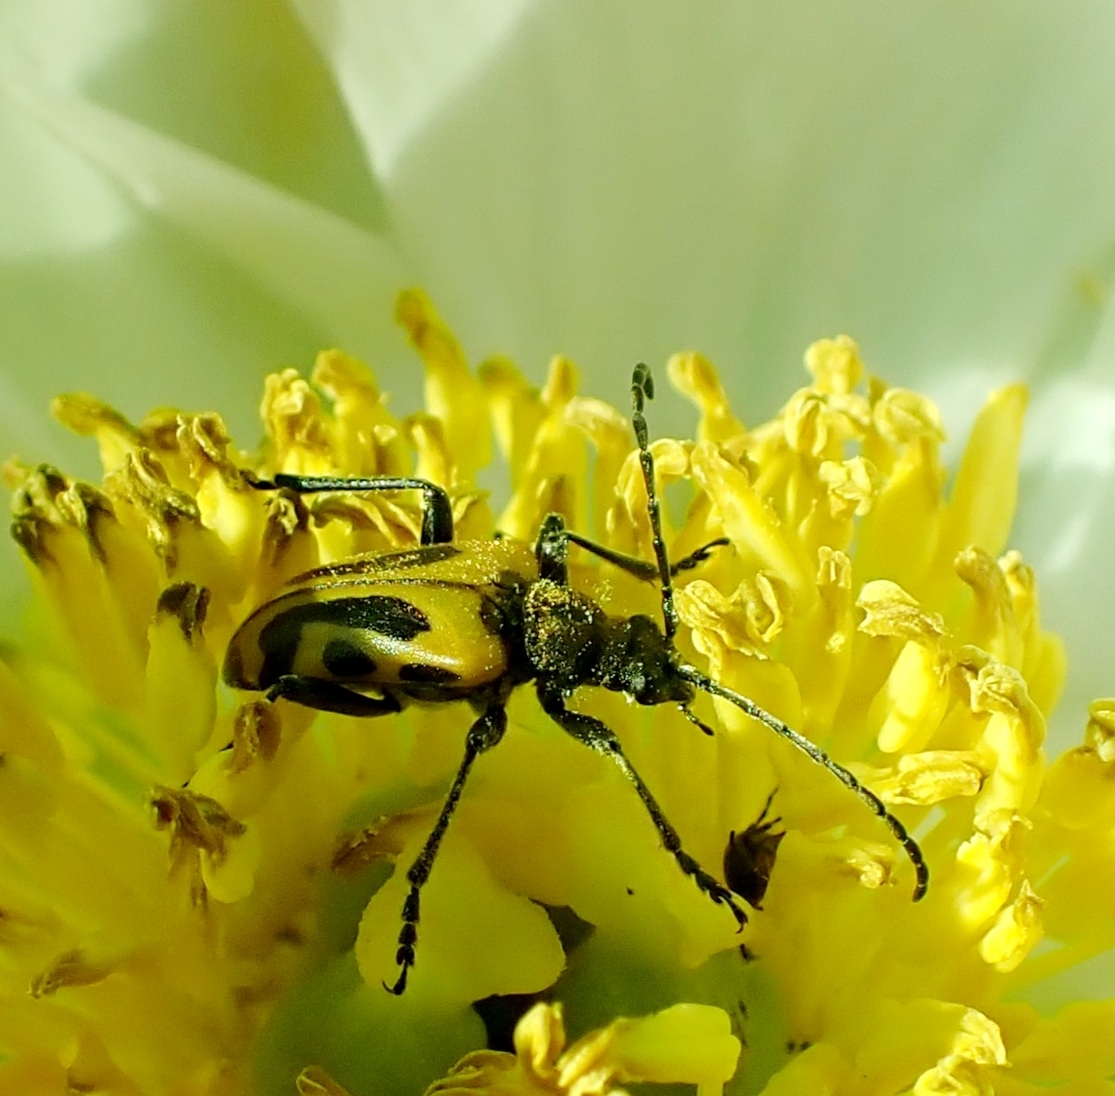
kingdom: Animalia
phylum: Arthropoda
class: Insecta
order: Coleoptera
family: Cerambycidae
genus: Brachyta
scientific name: Brachyta interrogationis
